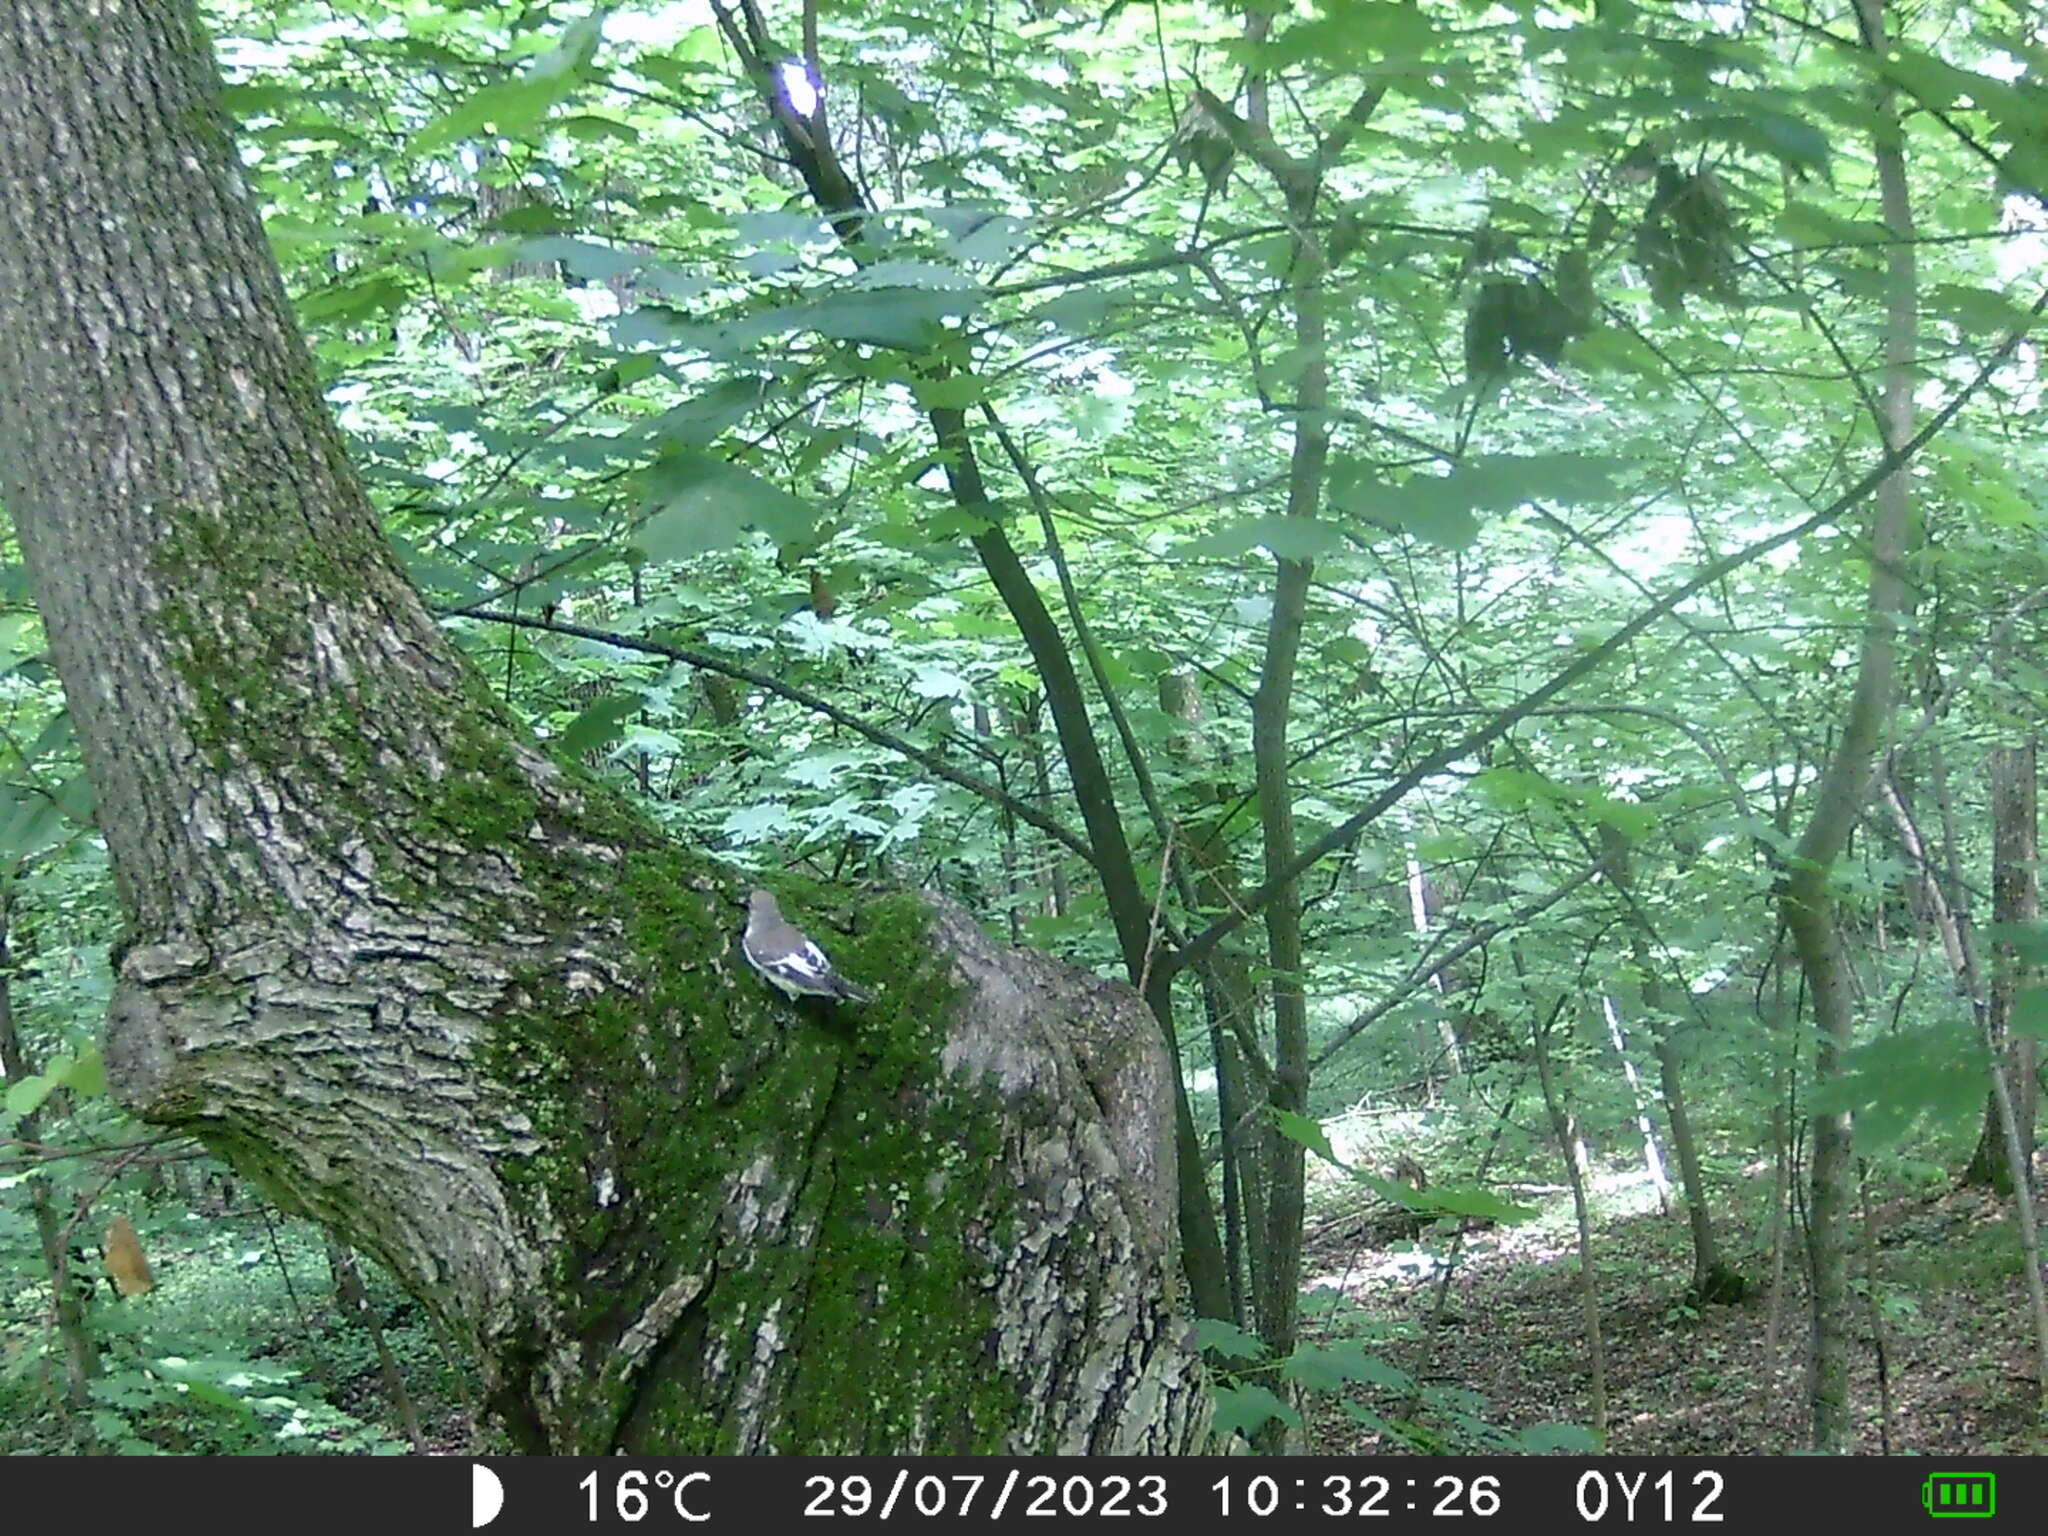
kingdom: Animalia
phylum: Chordata
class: Aves
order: Passeriformes
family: Muscicapidae
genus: Ficedula
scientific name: Ficedula albicollis
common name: Collared flycatcher
